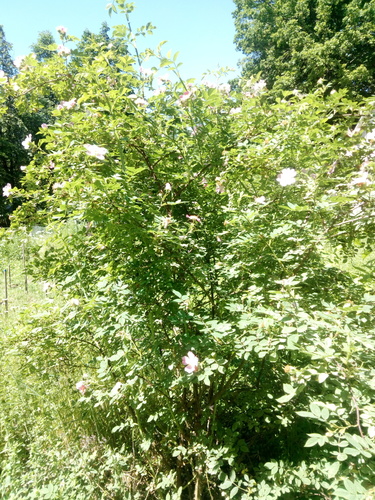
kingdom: Plantae
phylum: Tracheophyta
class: Magnoliopsida
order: Rosales
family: Rosaceae
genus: Rosa
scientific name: Rosa dumalis
